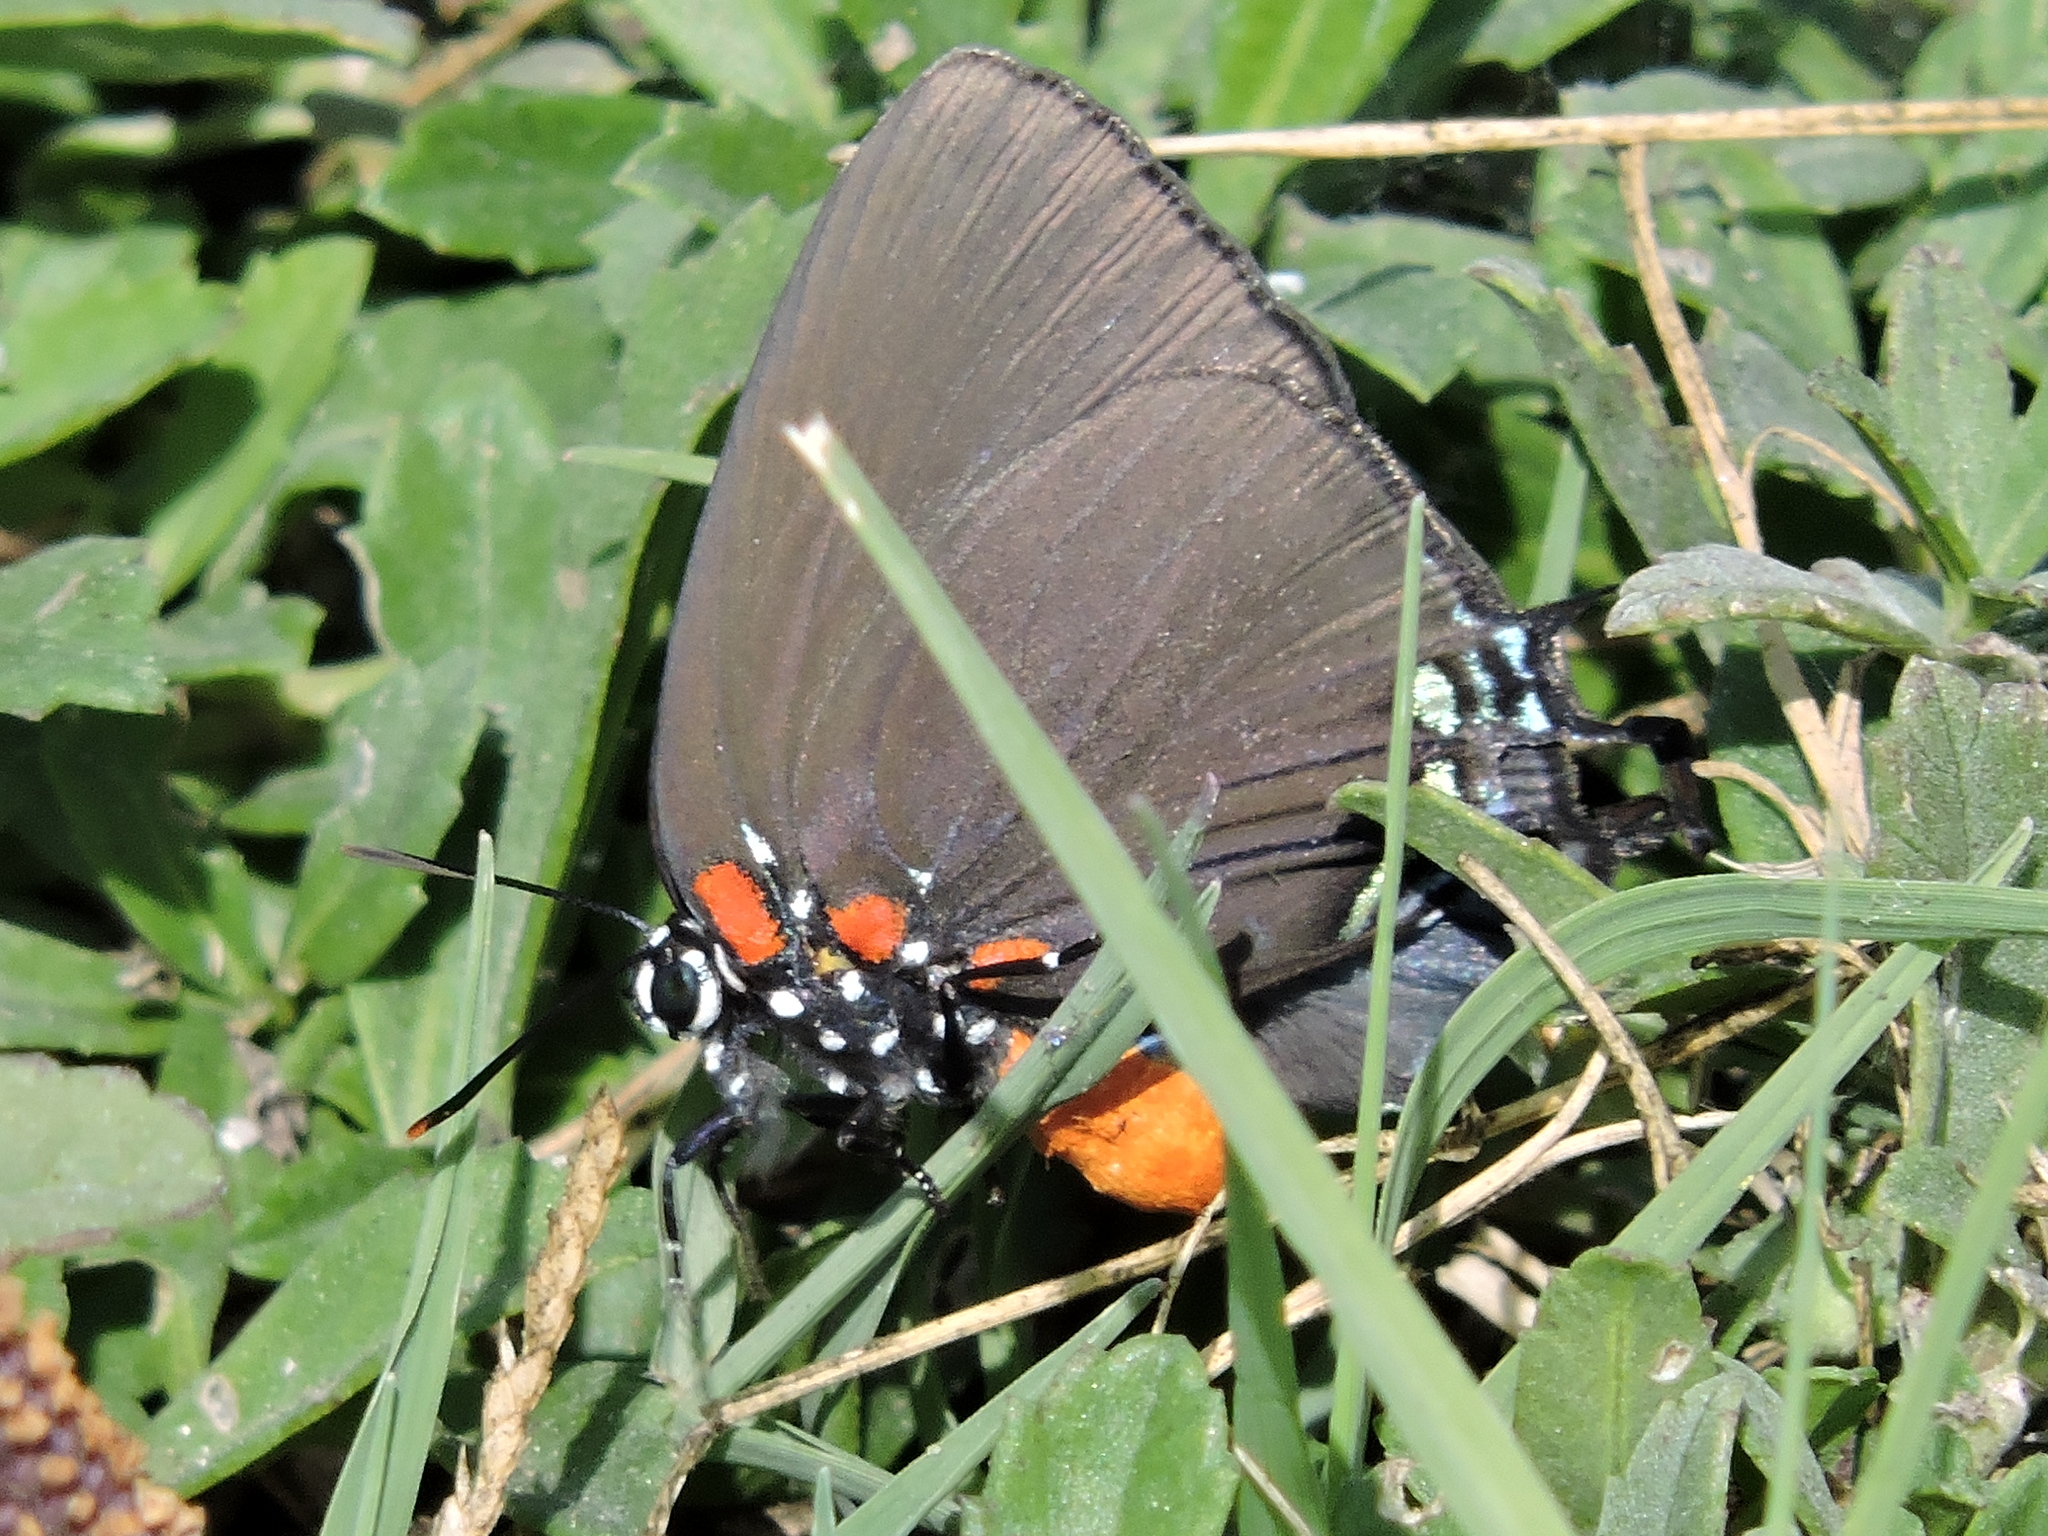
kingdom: Animalia
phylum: Arthropoda
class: Insecta
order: Lepidoptera
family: Lycaenidae
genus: Atlides
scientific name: Atlides halesus
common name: Great purple hairstreak
